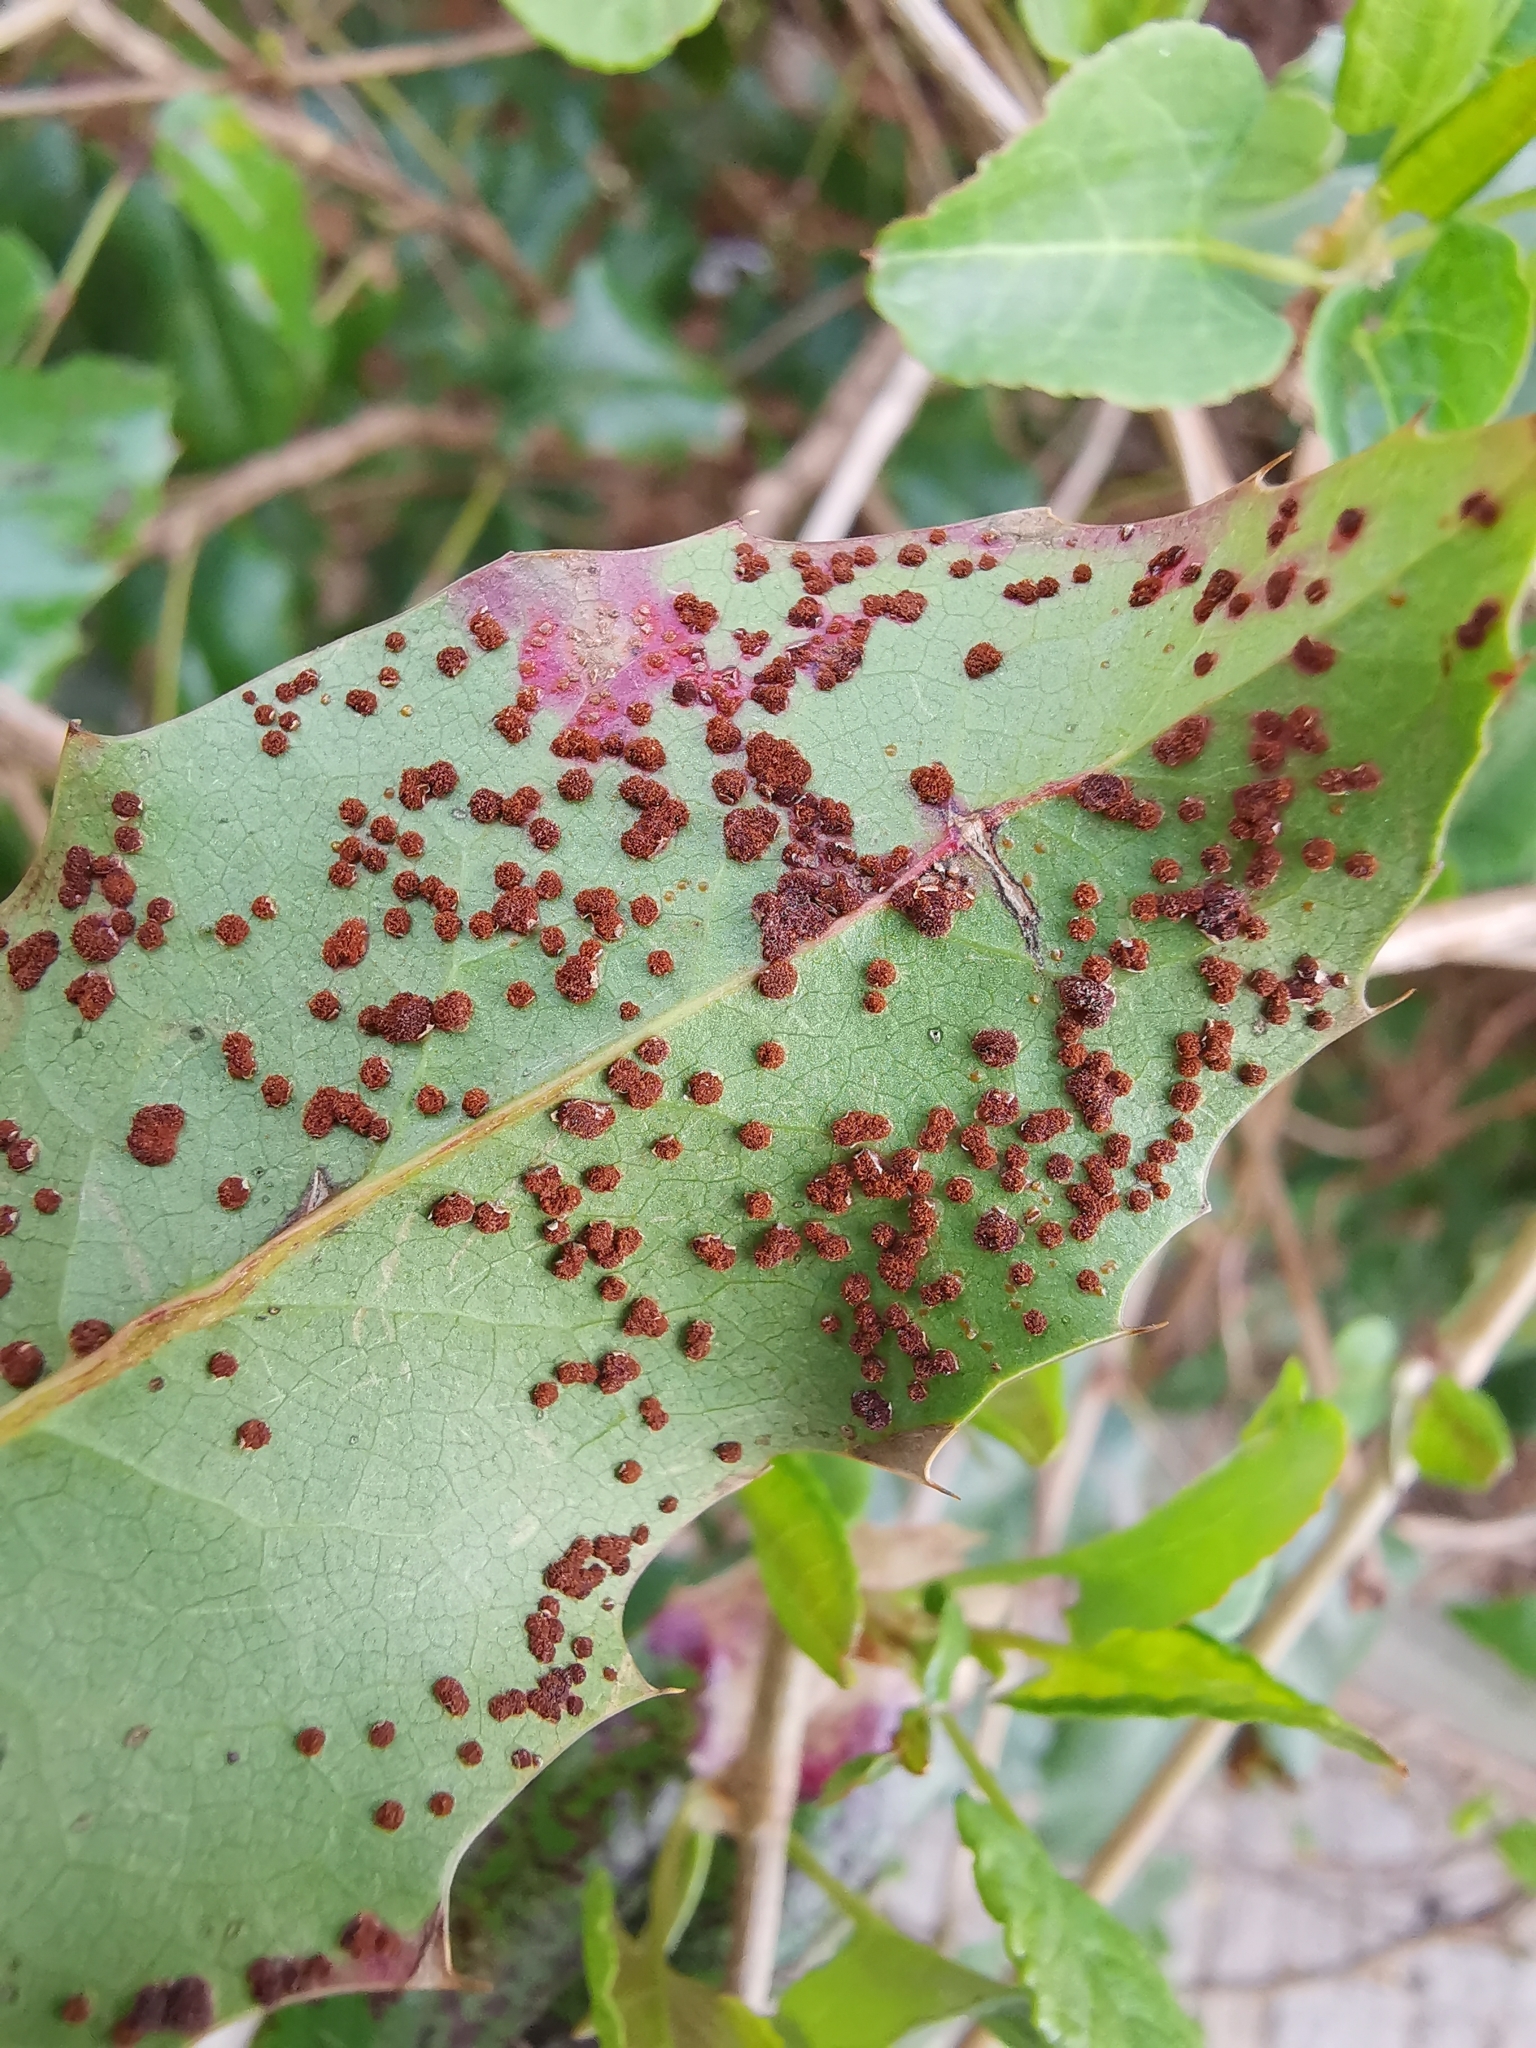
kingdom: Fungi
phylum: Basidiomycota
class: Pucciniomycetes
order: Pucciniales
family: Pucciniaceae
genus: Cumminsiella
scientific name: Cumminsiella mirabilissima
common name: Mahonia rust
